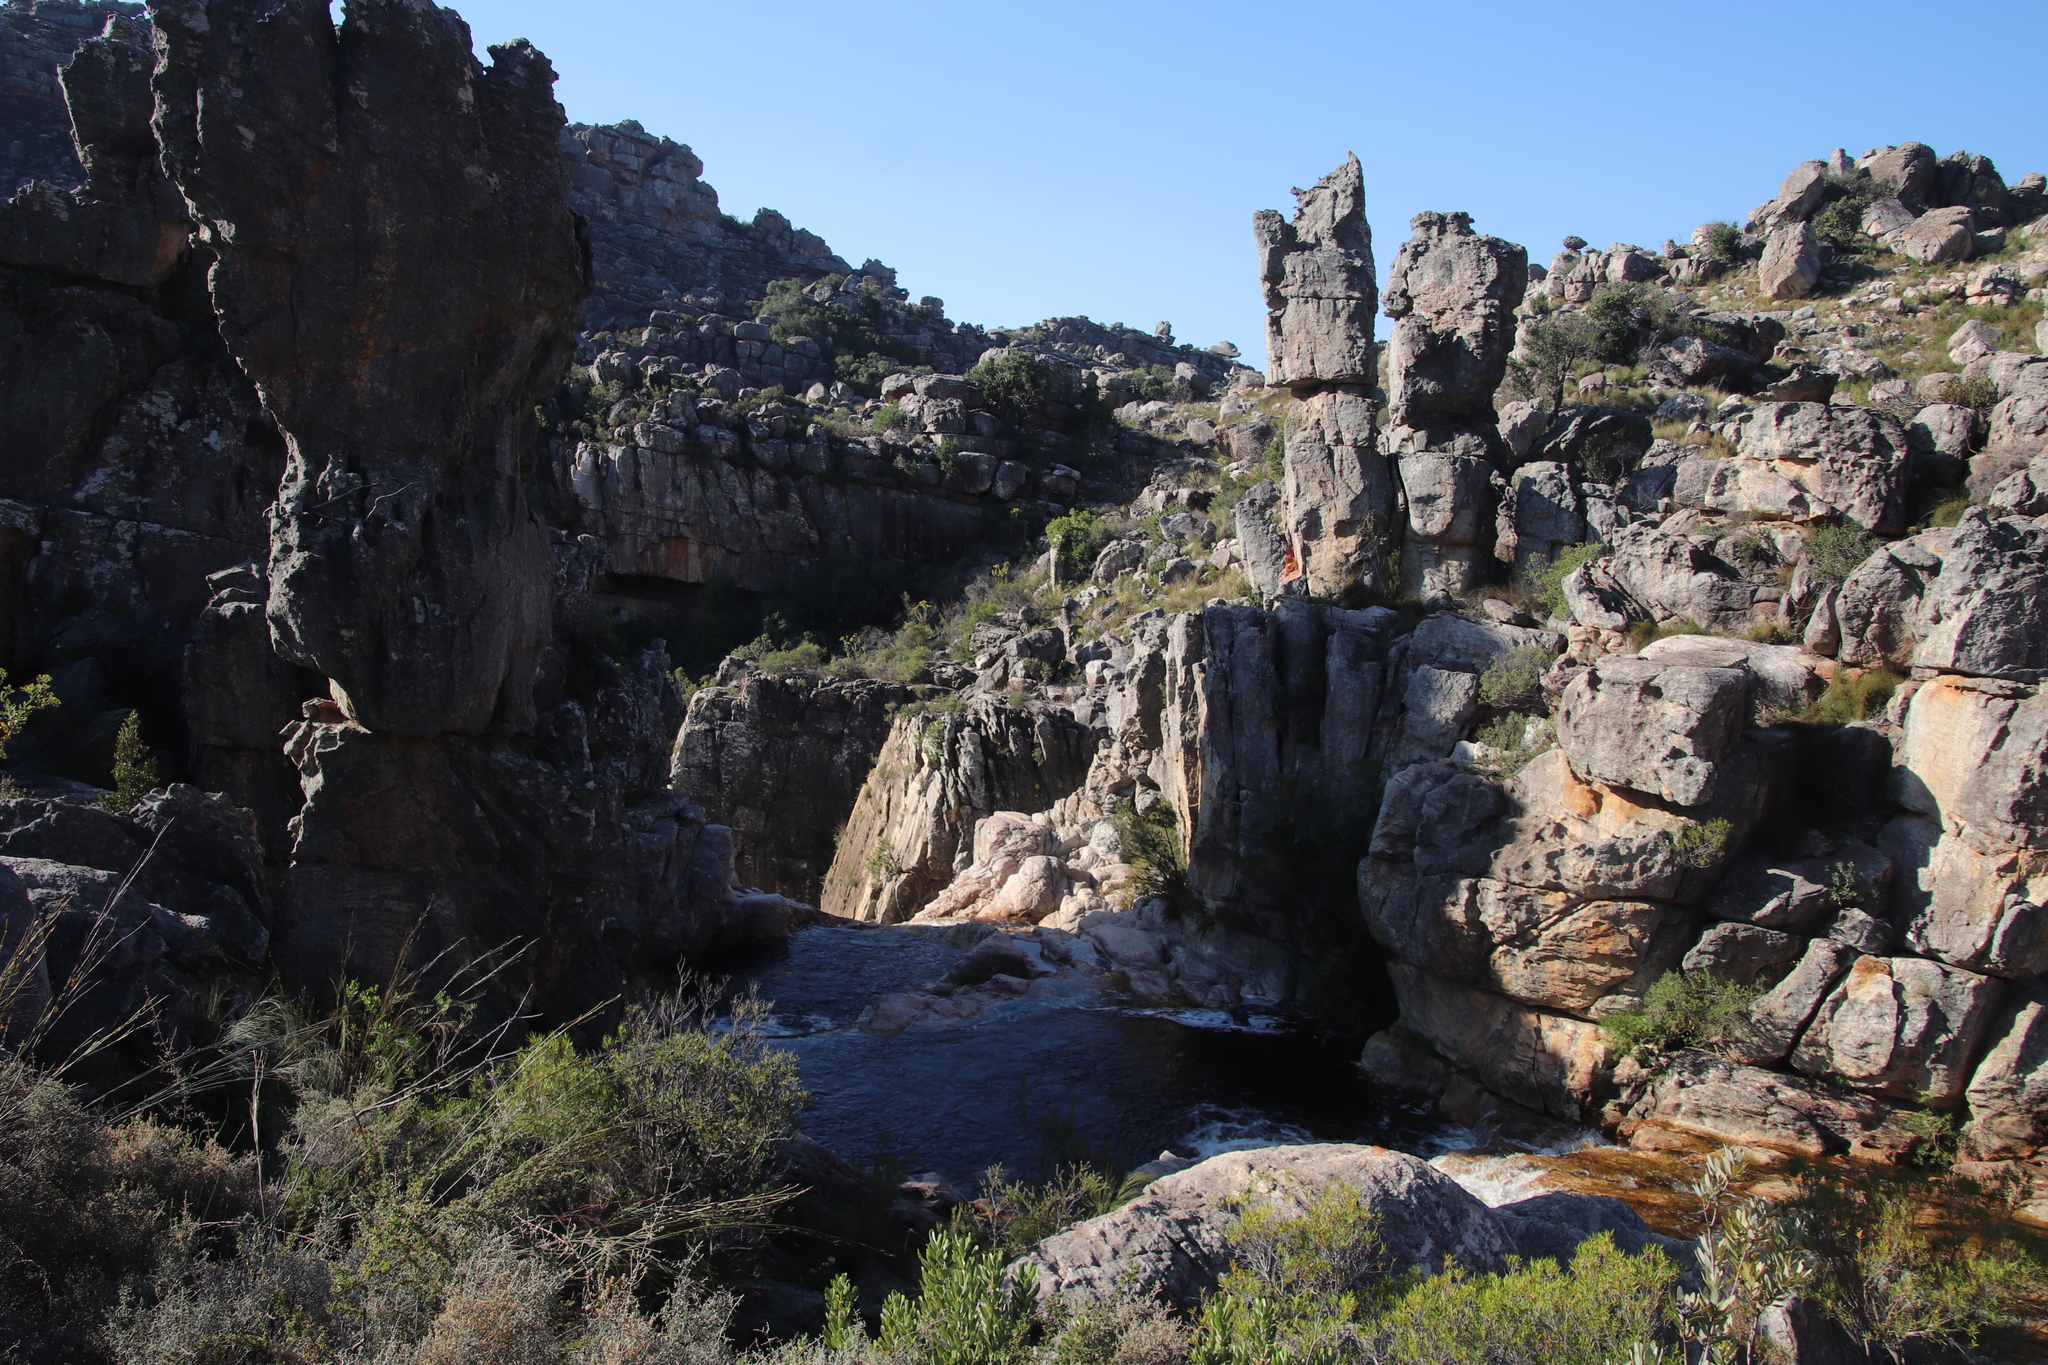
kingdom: Plantae
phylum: Tracheophyta
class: Magnoliopsida
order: Asterales
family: Asteraceae
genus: Othonna
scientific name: Othonna parviflora
